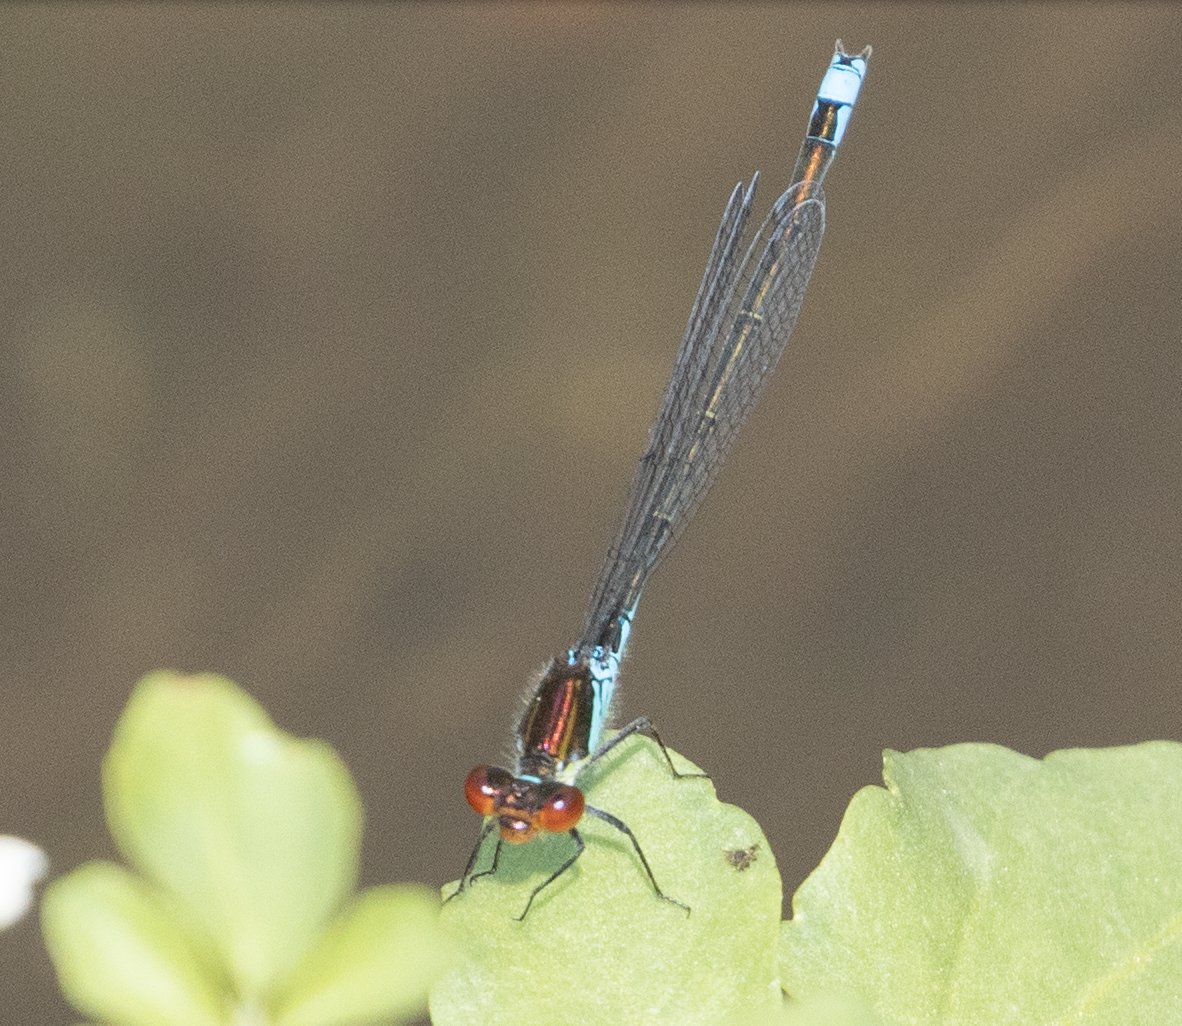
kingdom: Animalia
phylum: Arthropoda
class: Insecta
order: Odonata
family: Coenagrionidae
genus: Erythromma
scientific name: Erythromma viridulum
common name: Small red-eyed damselfly
